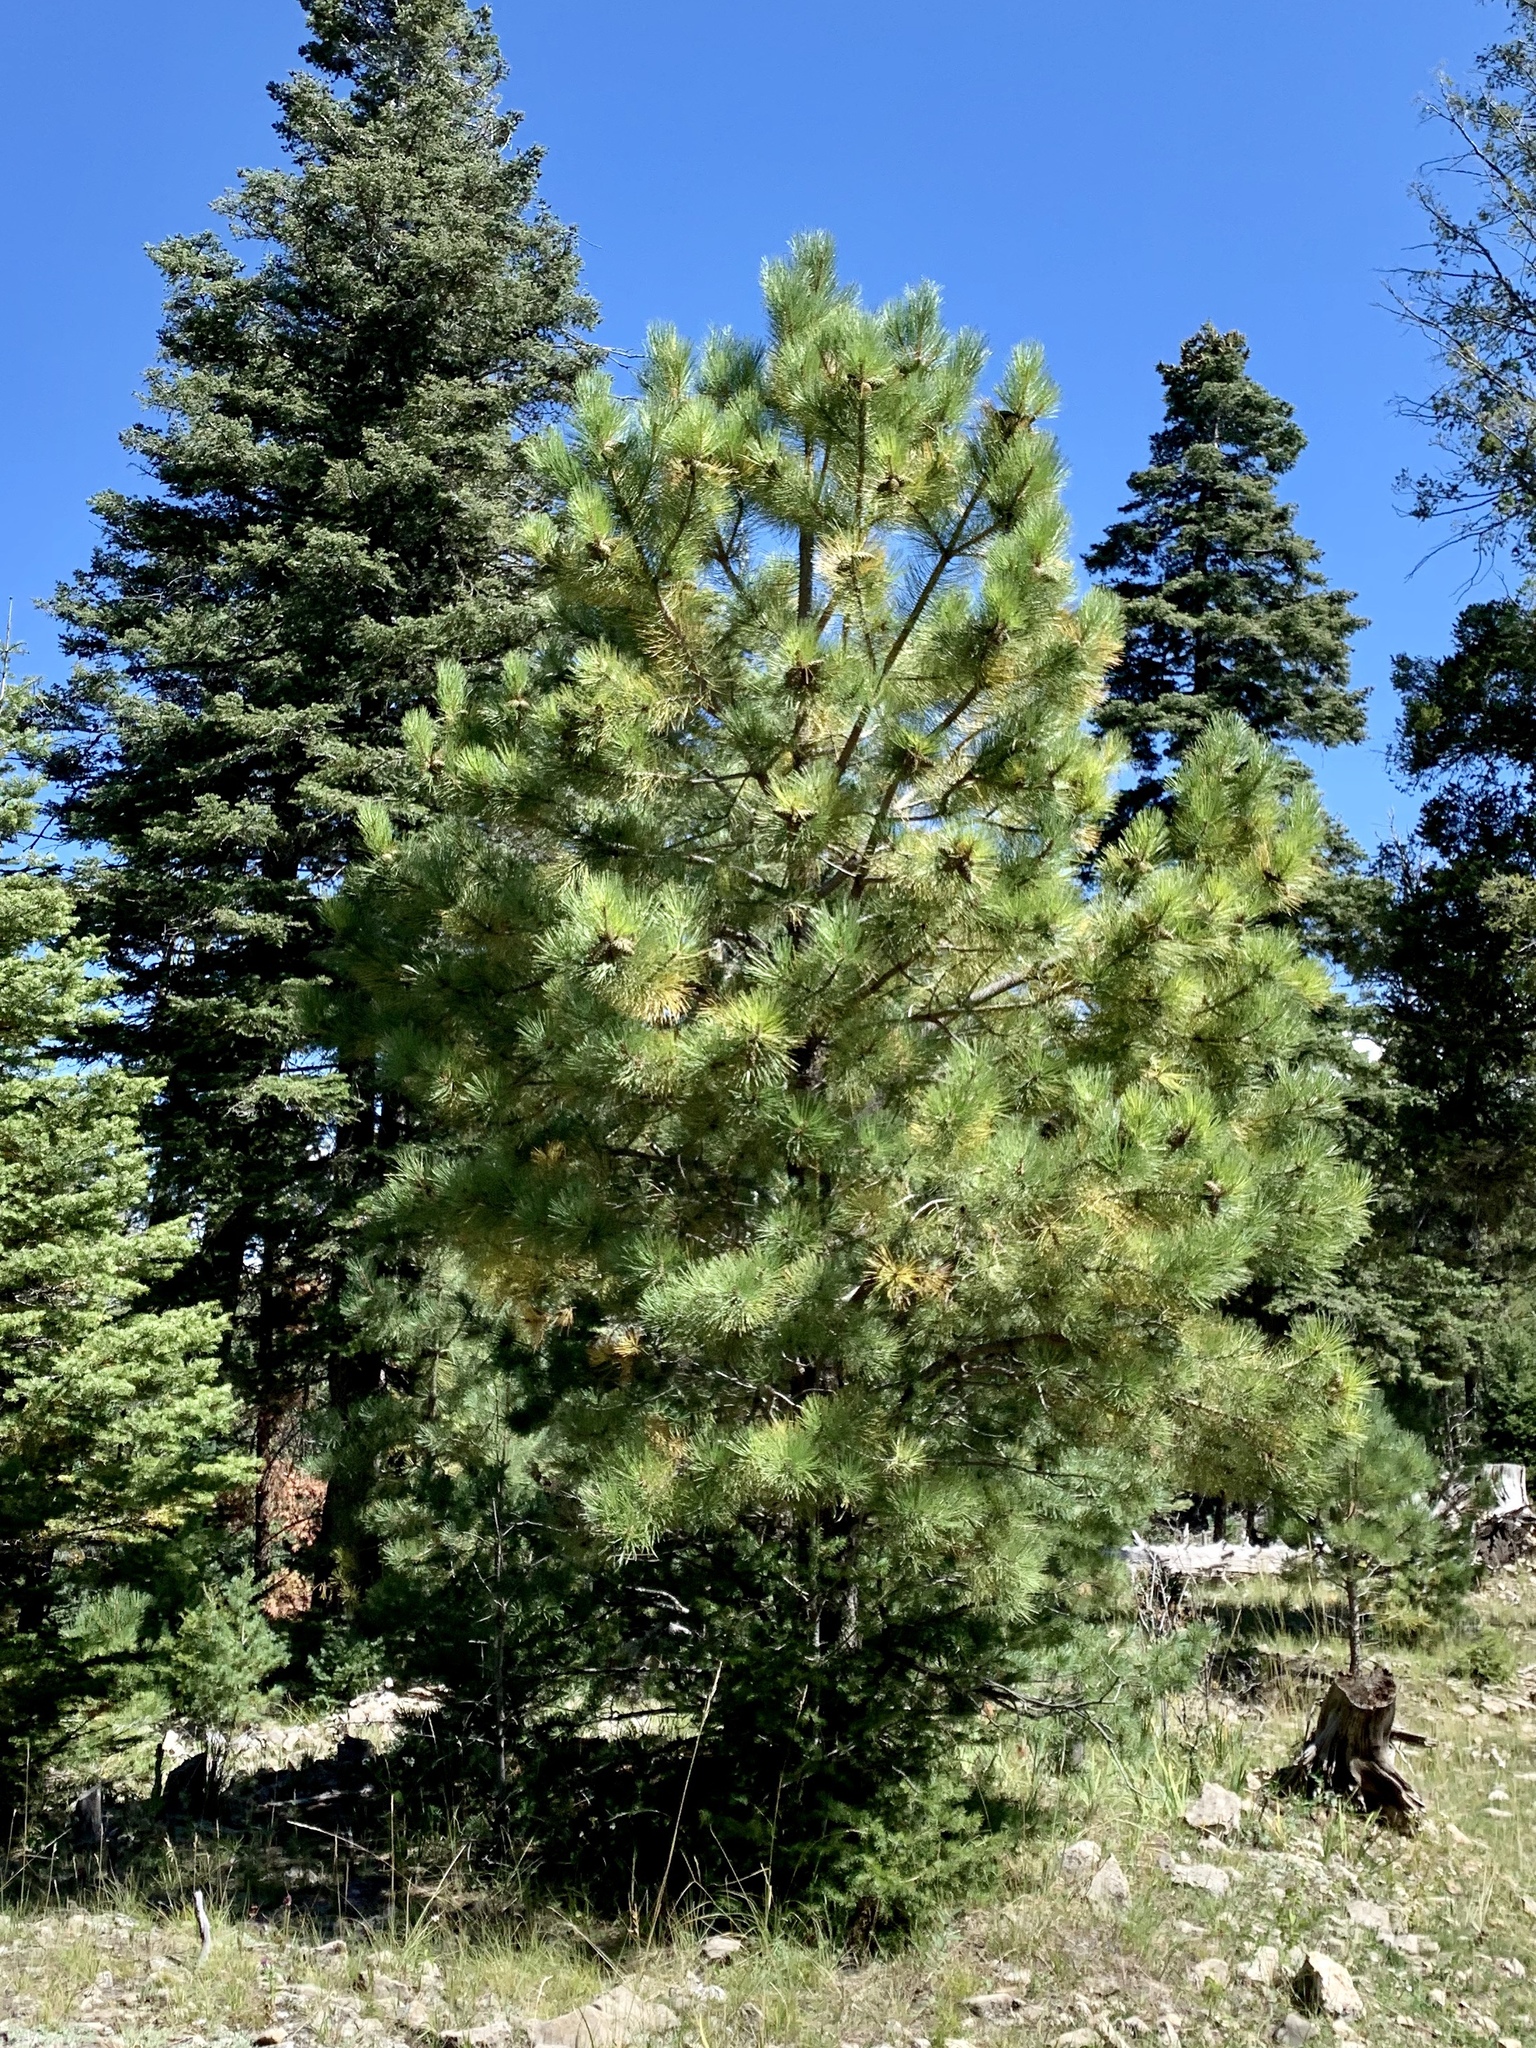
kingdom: Plantae
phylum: Tracheophyta
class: Pinopsida
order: Pinales
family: Pinaceae
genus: Pinus
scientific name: Pinus ponderosa
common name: Western yellow-pine
